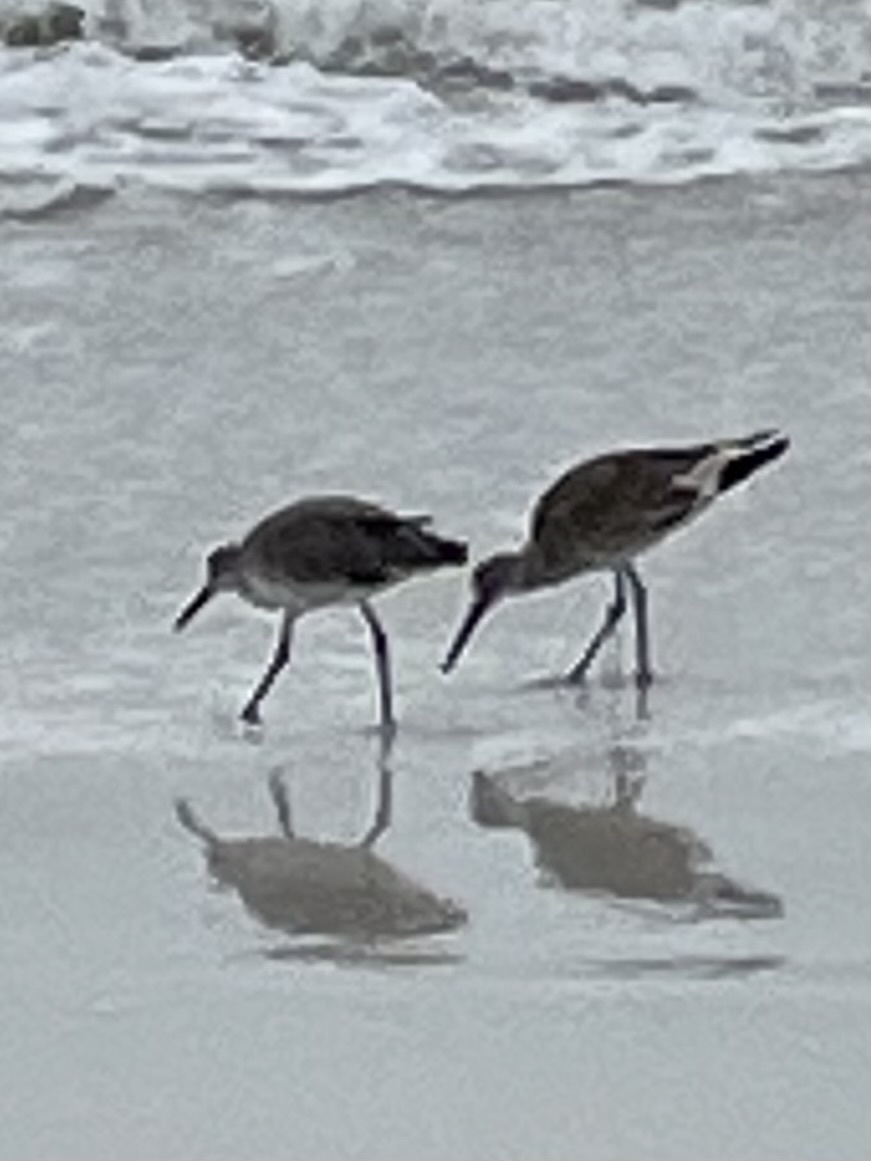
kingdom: Animalia
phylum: Chordata
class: Aves
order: Charadriiformes
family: Scolopacidae
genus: Tringa
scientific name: Tringa semipalmata
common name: Willet
